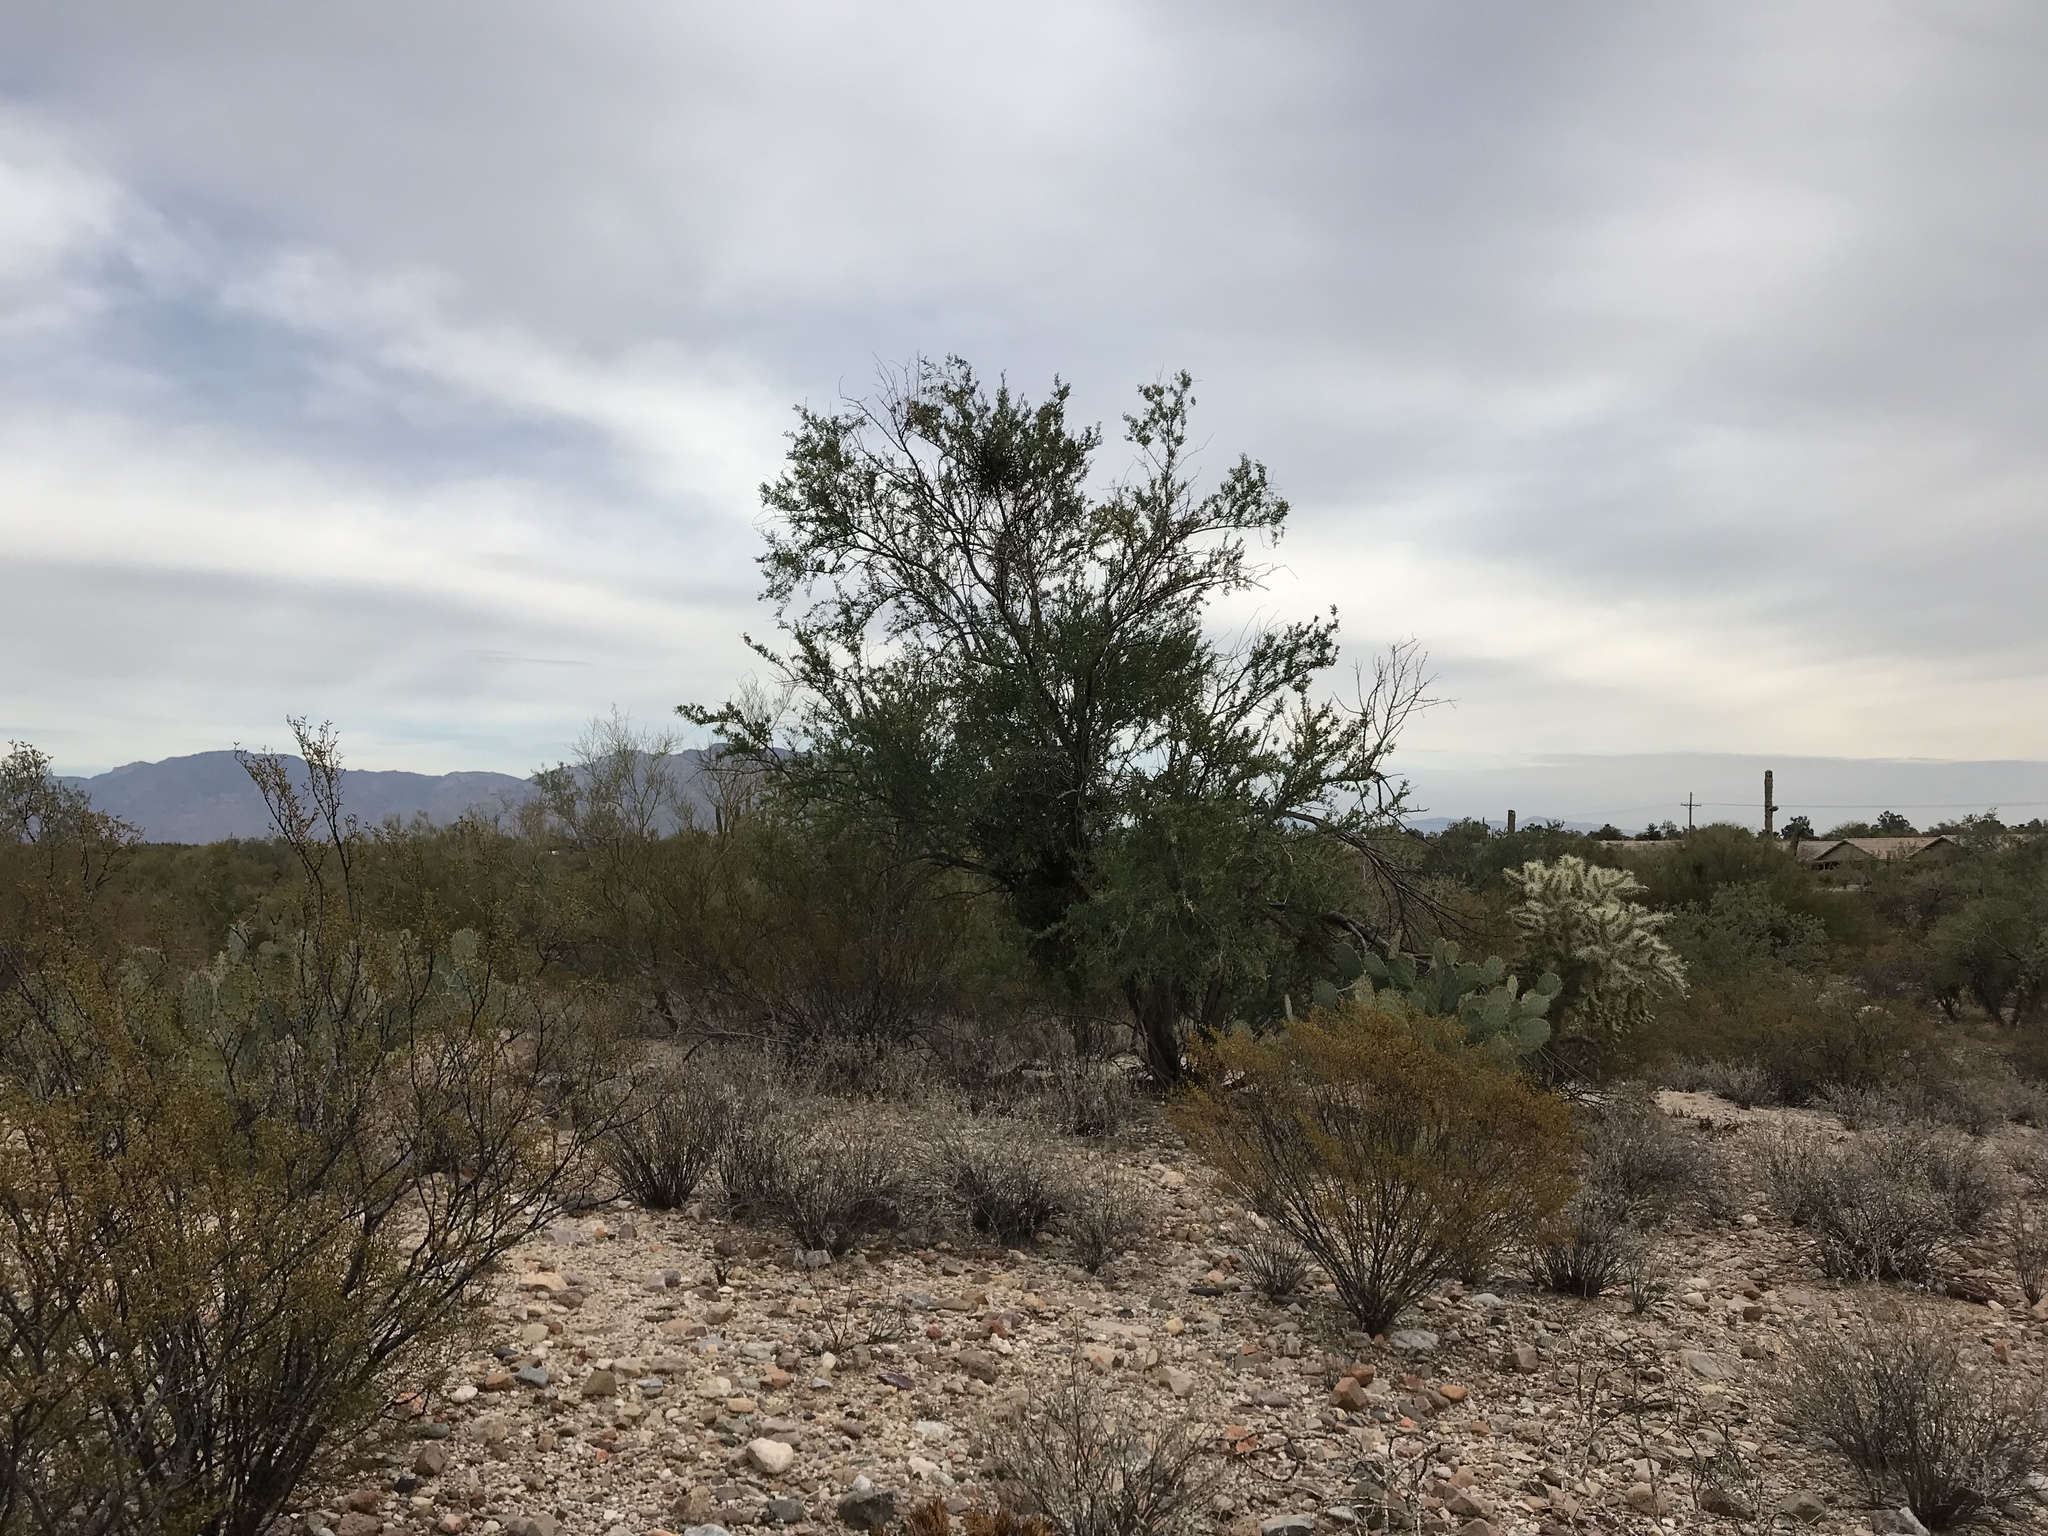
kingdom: Plantae
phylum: Tracheophyta
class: Magnoliopsida
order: Fabales
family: Fabaceae
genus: Olneya
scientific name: Olneya tesota
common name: Desert ironwood
